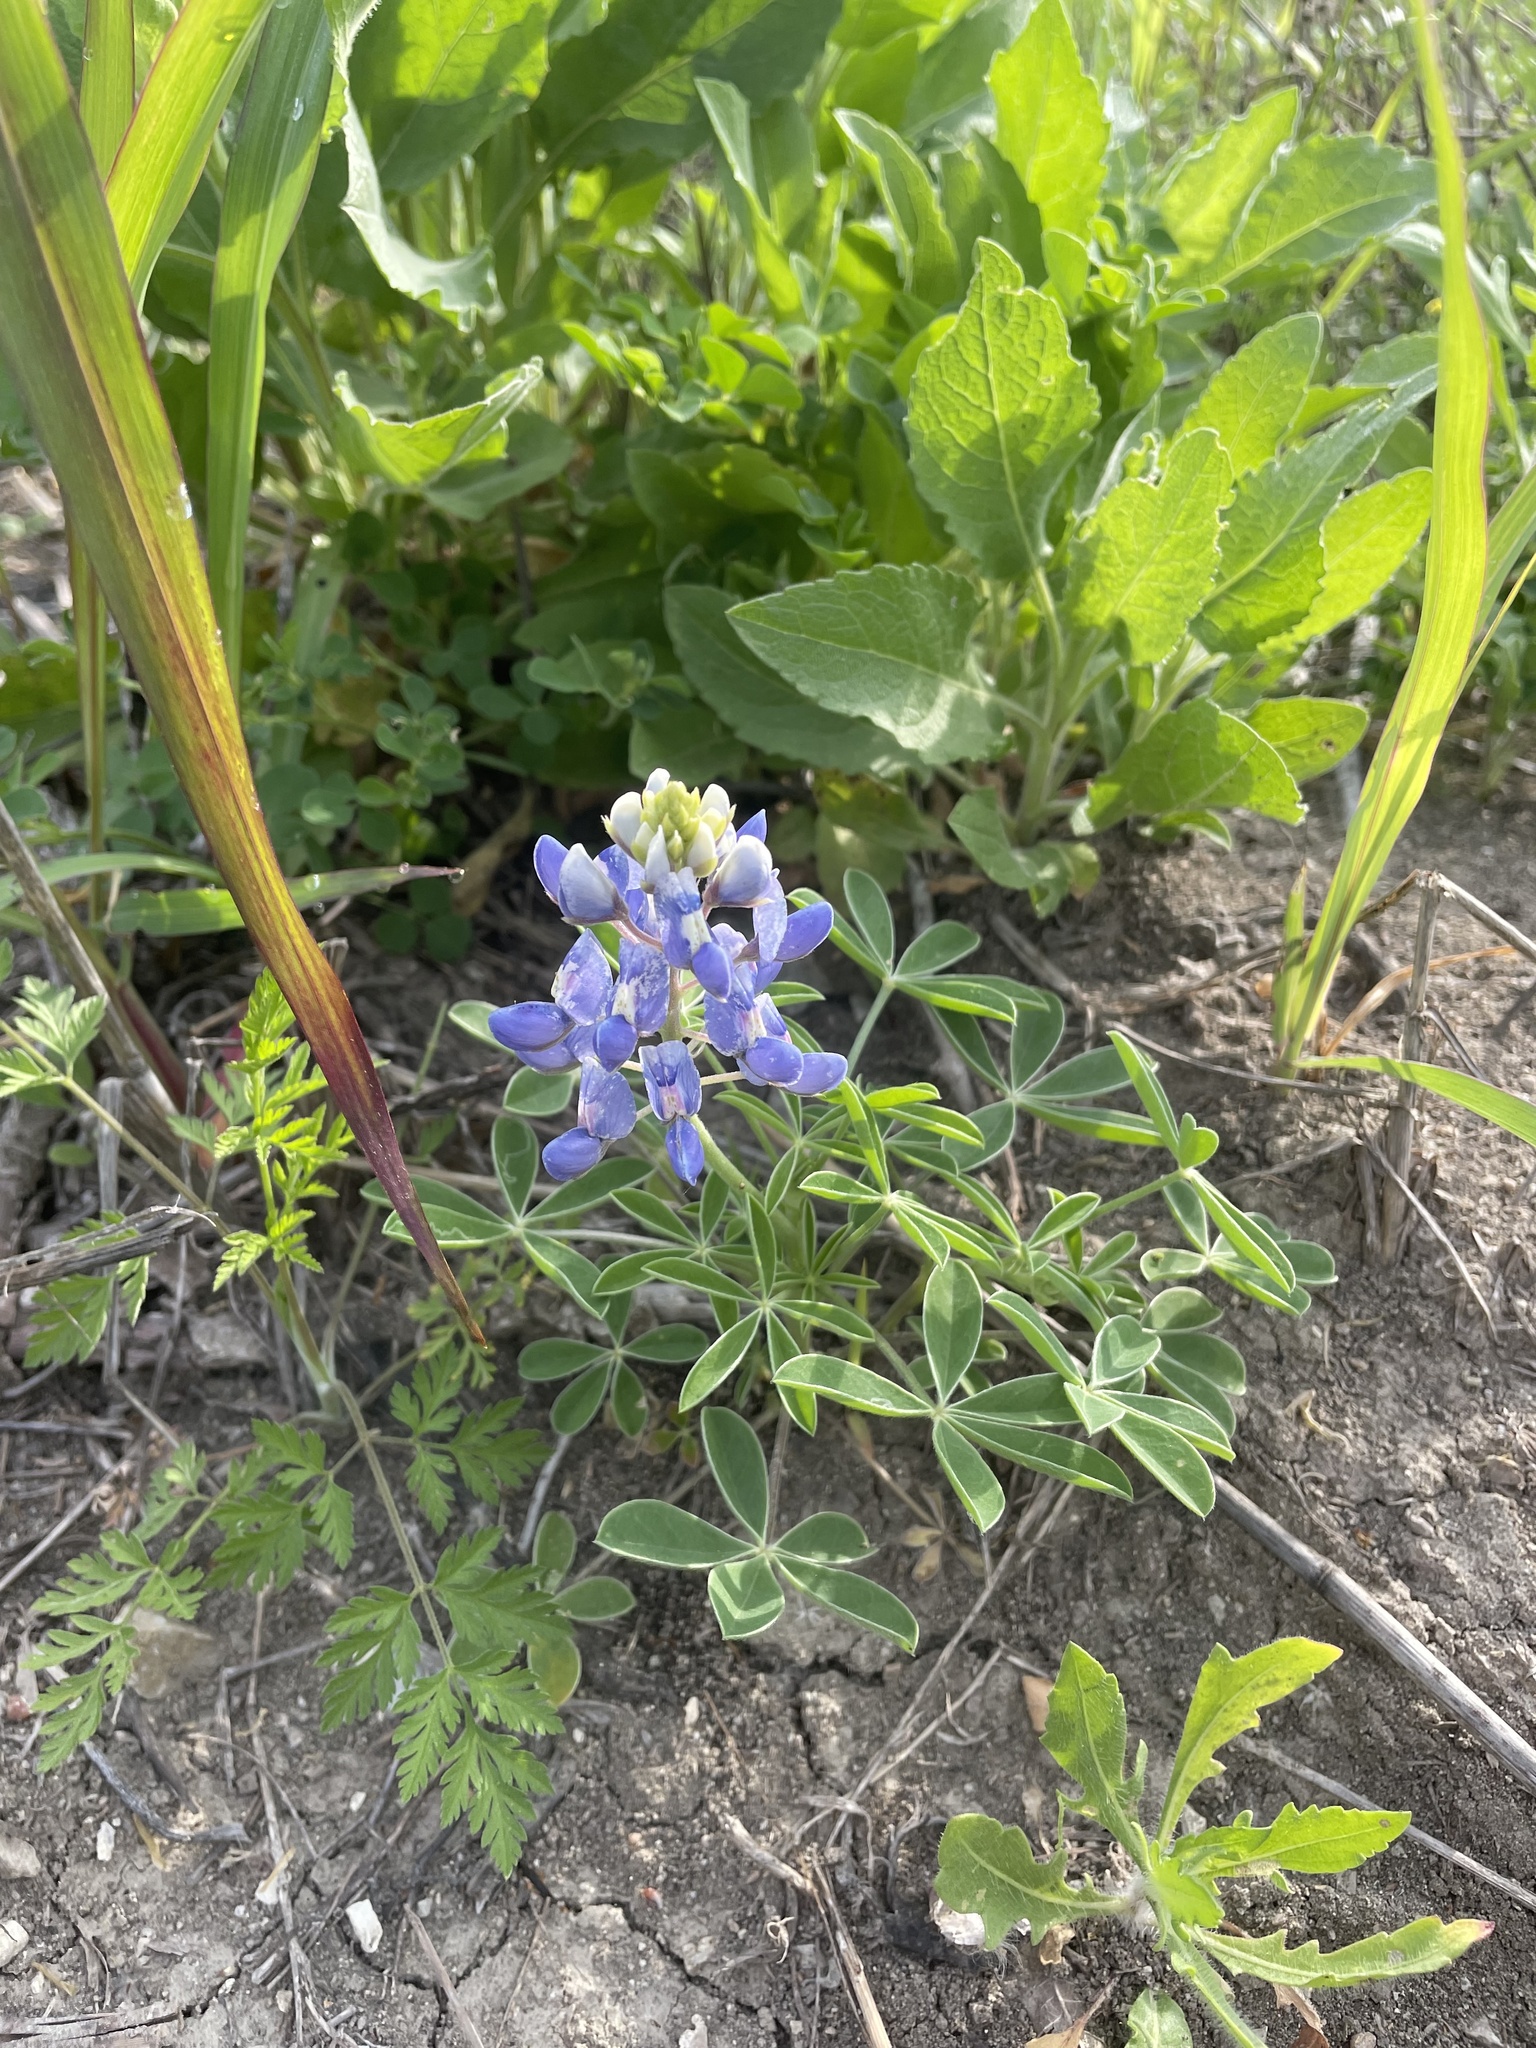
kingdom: Plantae
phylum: Tracheophyta
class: Magnoliopsida
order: Fabales
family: Fabaceae
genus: Lupinus
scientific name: Lupinus texensis
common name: Texas bluebonnet
